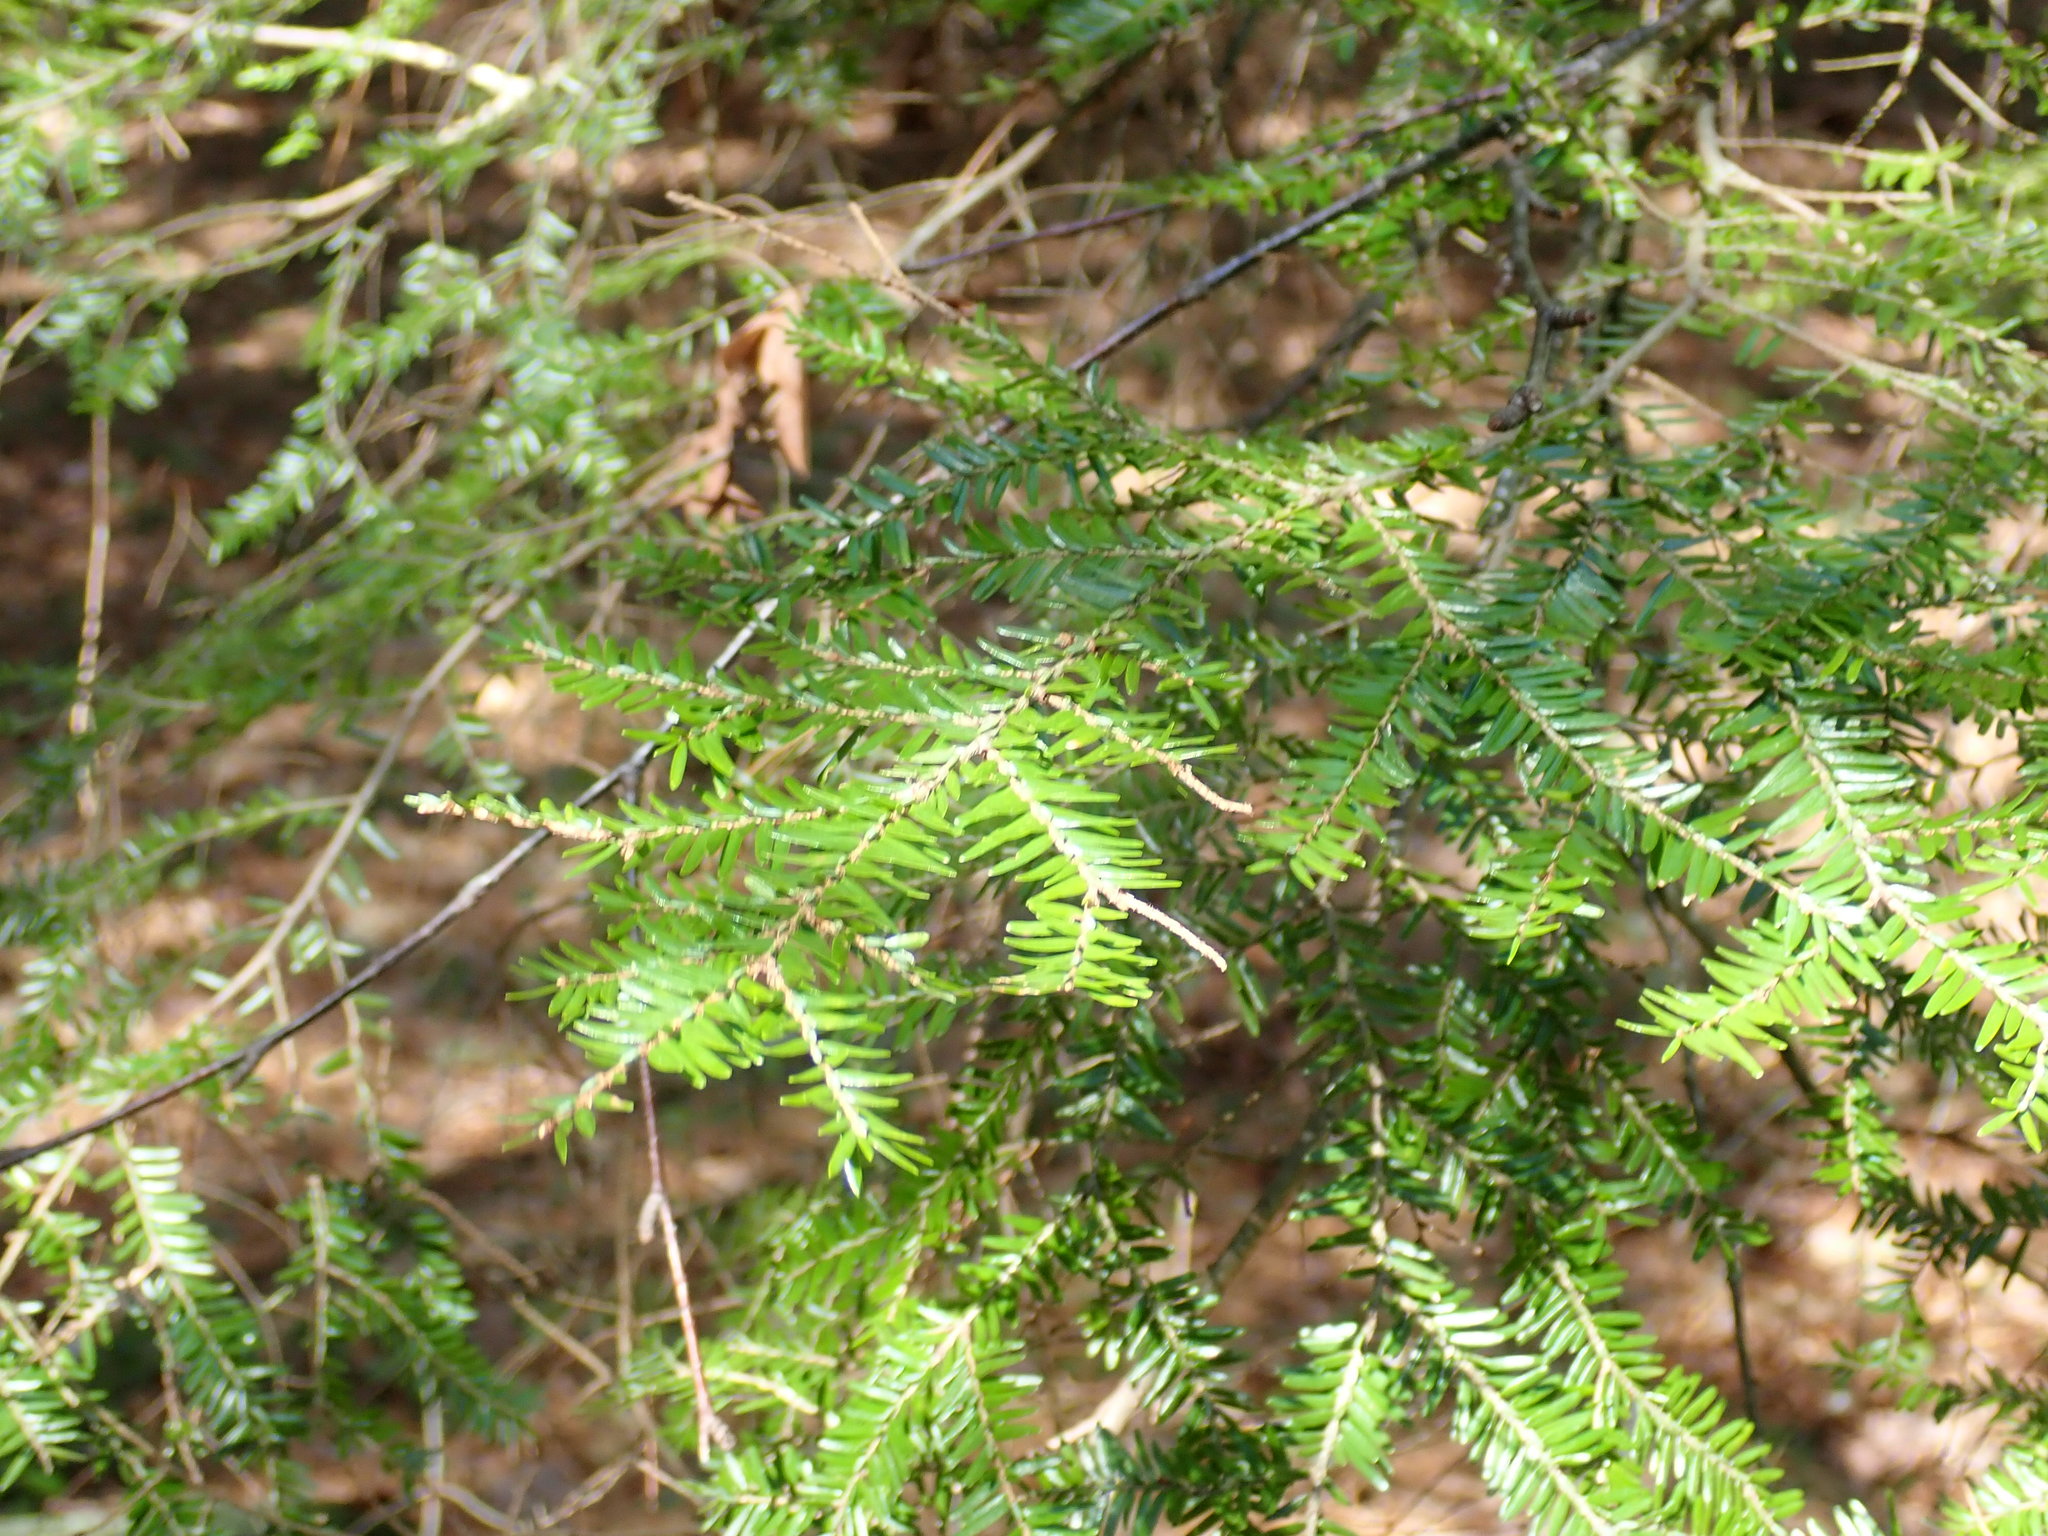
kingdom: Plantae
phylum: Tracheophyta
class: Pinopsida
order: Pinales
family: Pinaceae
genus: Tsuga
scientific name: Tsuga canadensis
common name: Eastern hemlock
